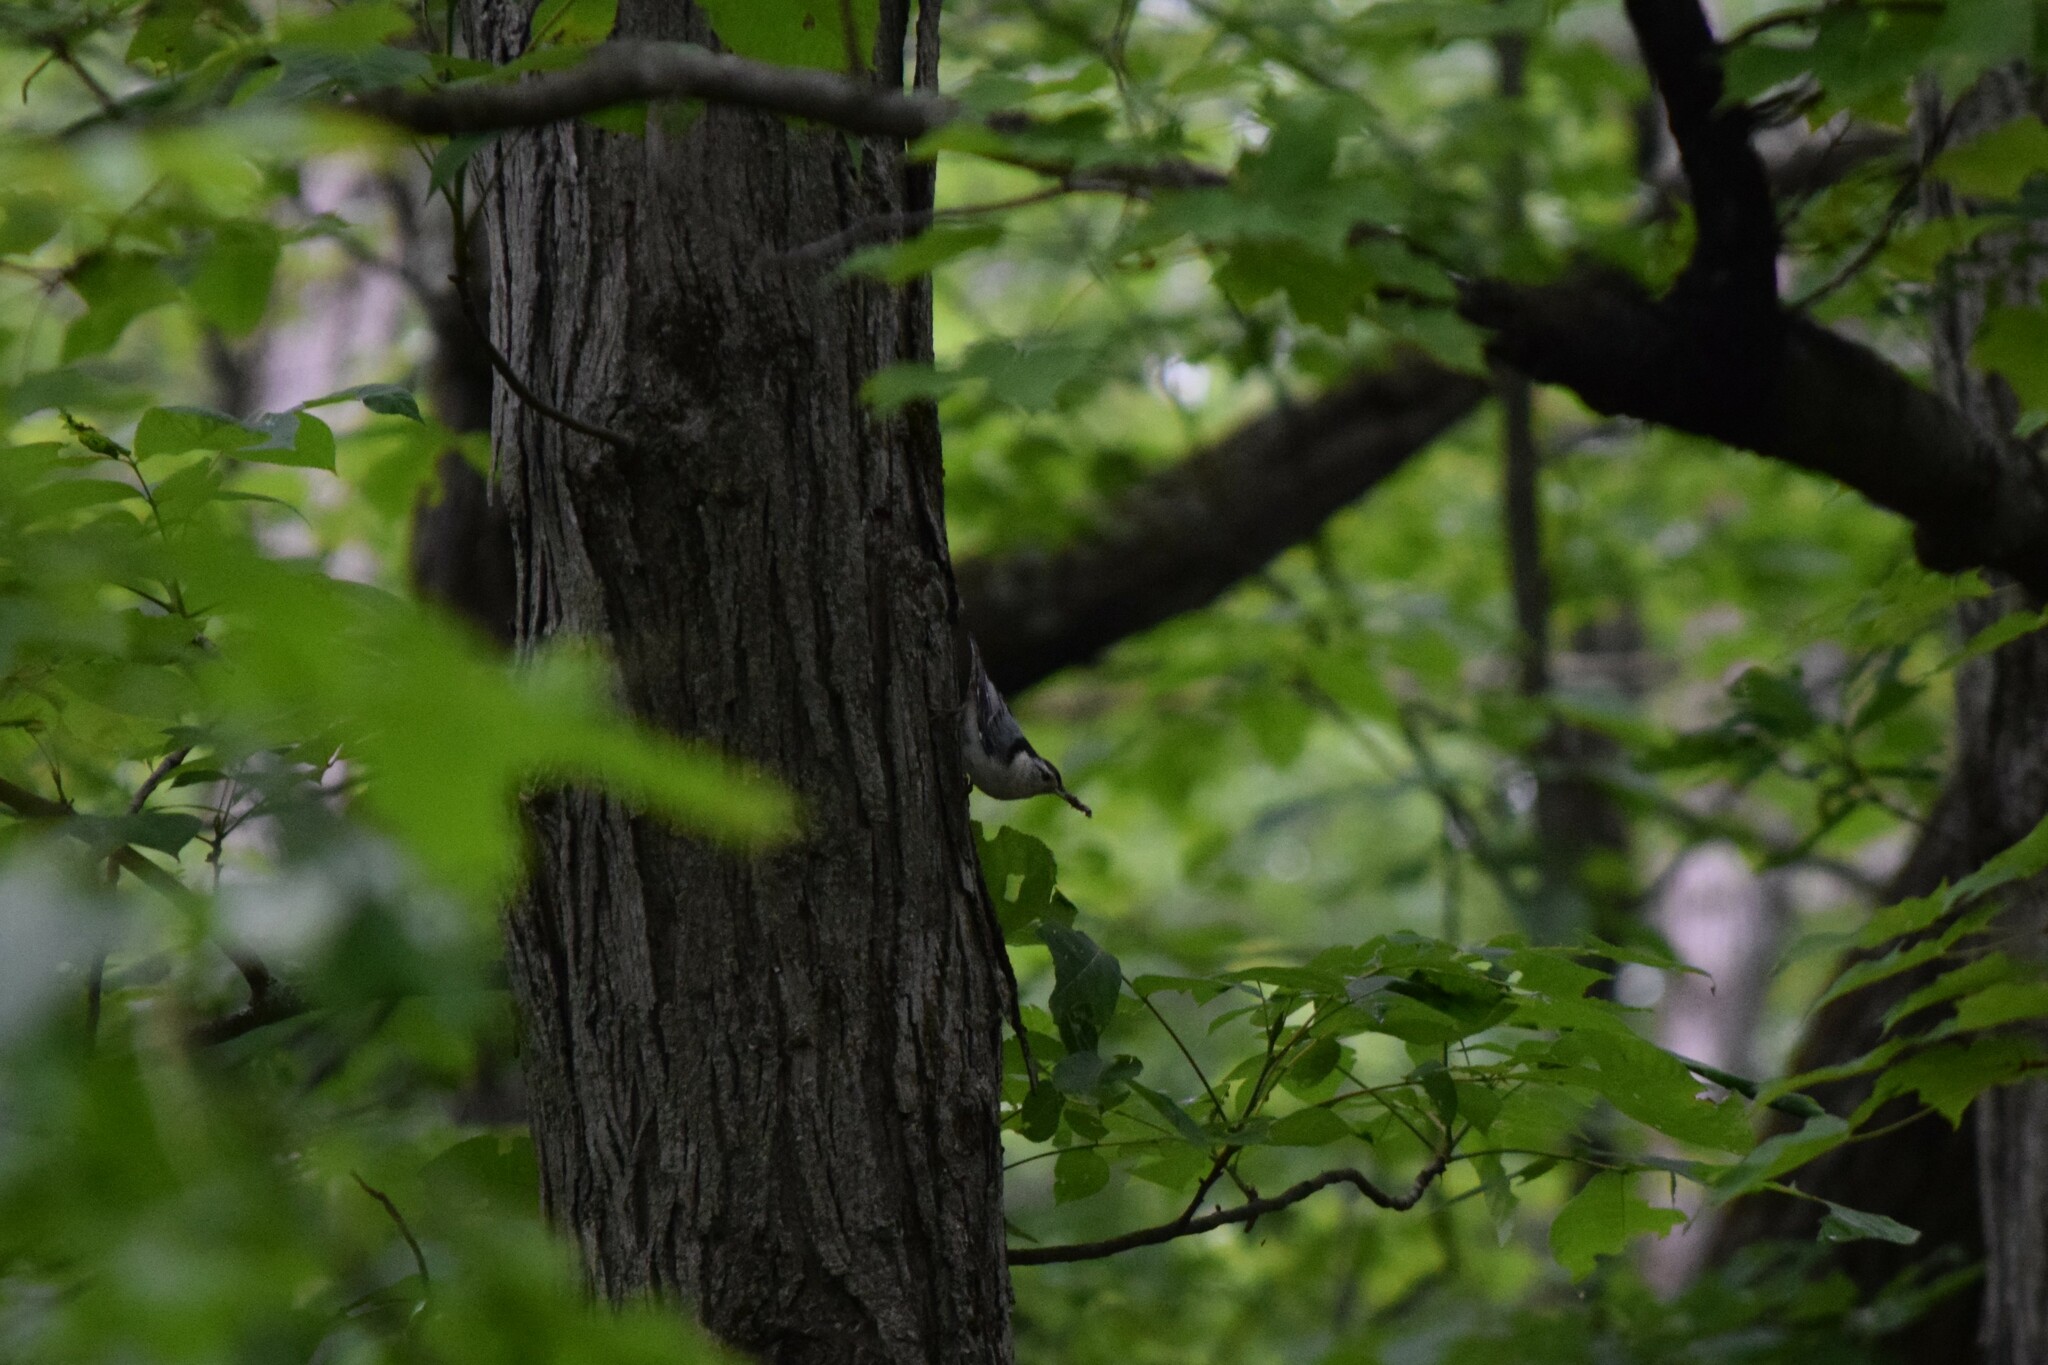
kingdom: Animalia
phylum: Chordata
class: Aves
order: Passeriformes
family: Sittidae
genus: Sitta
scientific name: Sitta carolinensis
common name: White-breasted nuthatch
